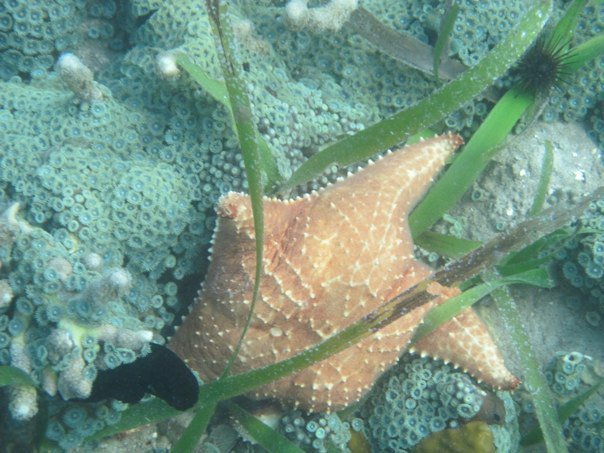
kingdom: Animalia
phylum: Echinodermata
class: Asteroidea
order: Valvatida
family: Oreasteridae
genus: Oreaster
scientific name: Oreaster reticulatus
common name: Cushion sea star
